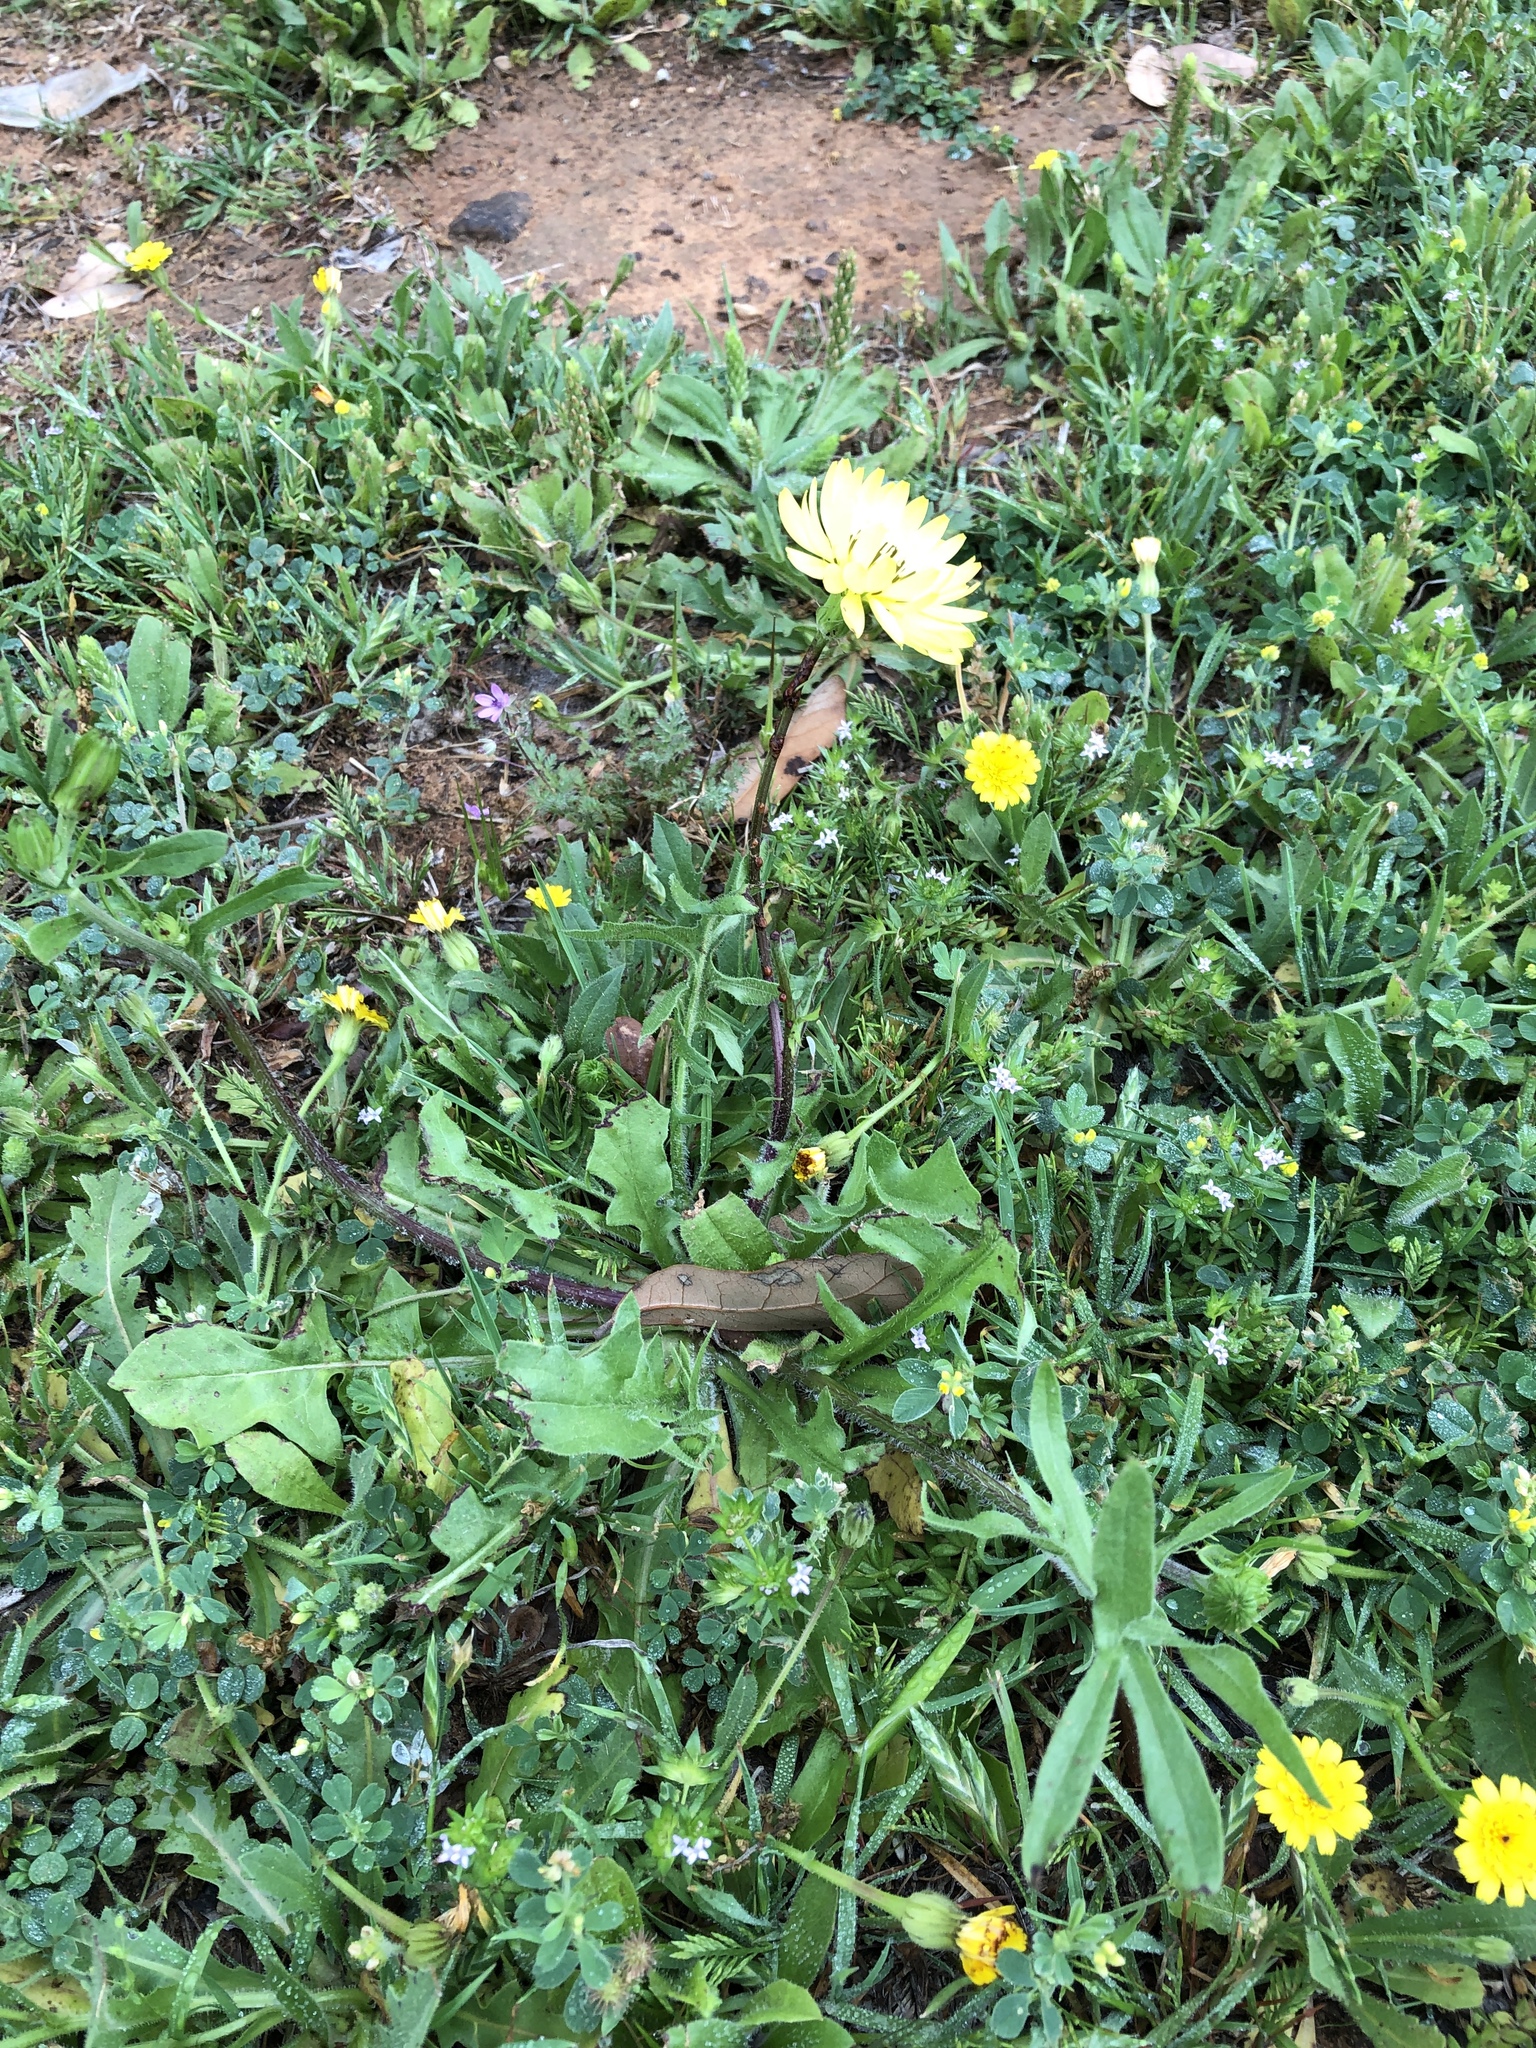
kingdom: Plantae
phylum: Tracheophyta
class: Magnoliopsida
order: Asterales
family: Asteraceae
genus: Pyrrhopappus
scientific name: Pyrrhopappus pauciflorus
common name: Texas false dandelion
